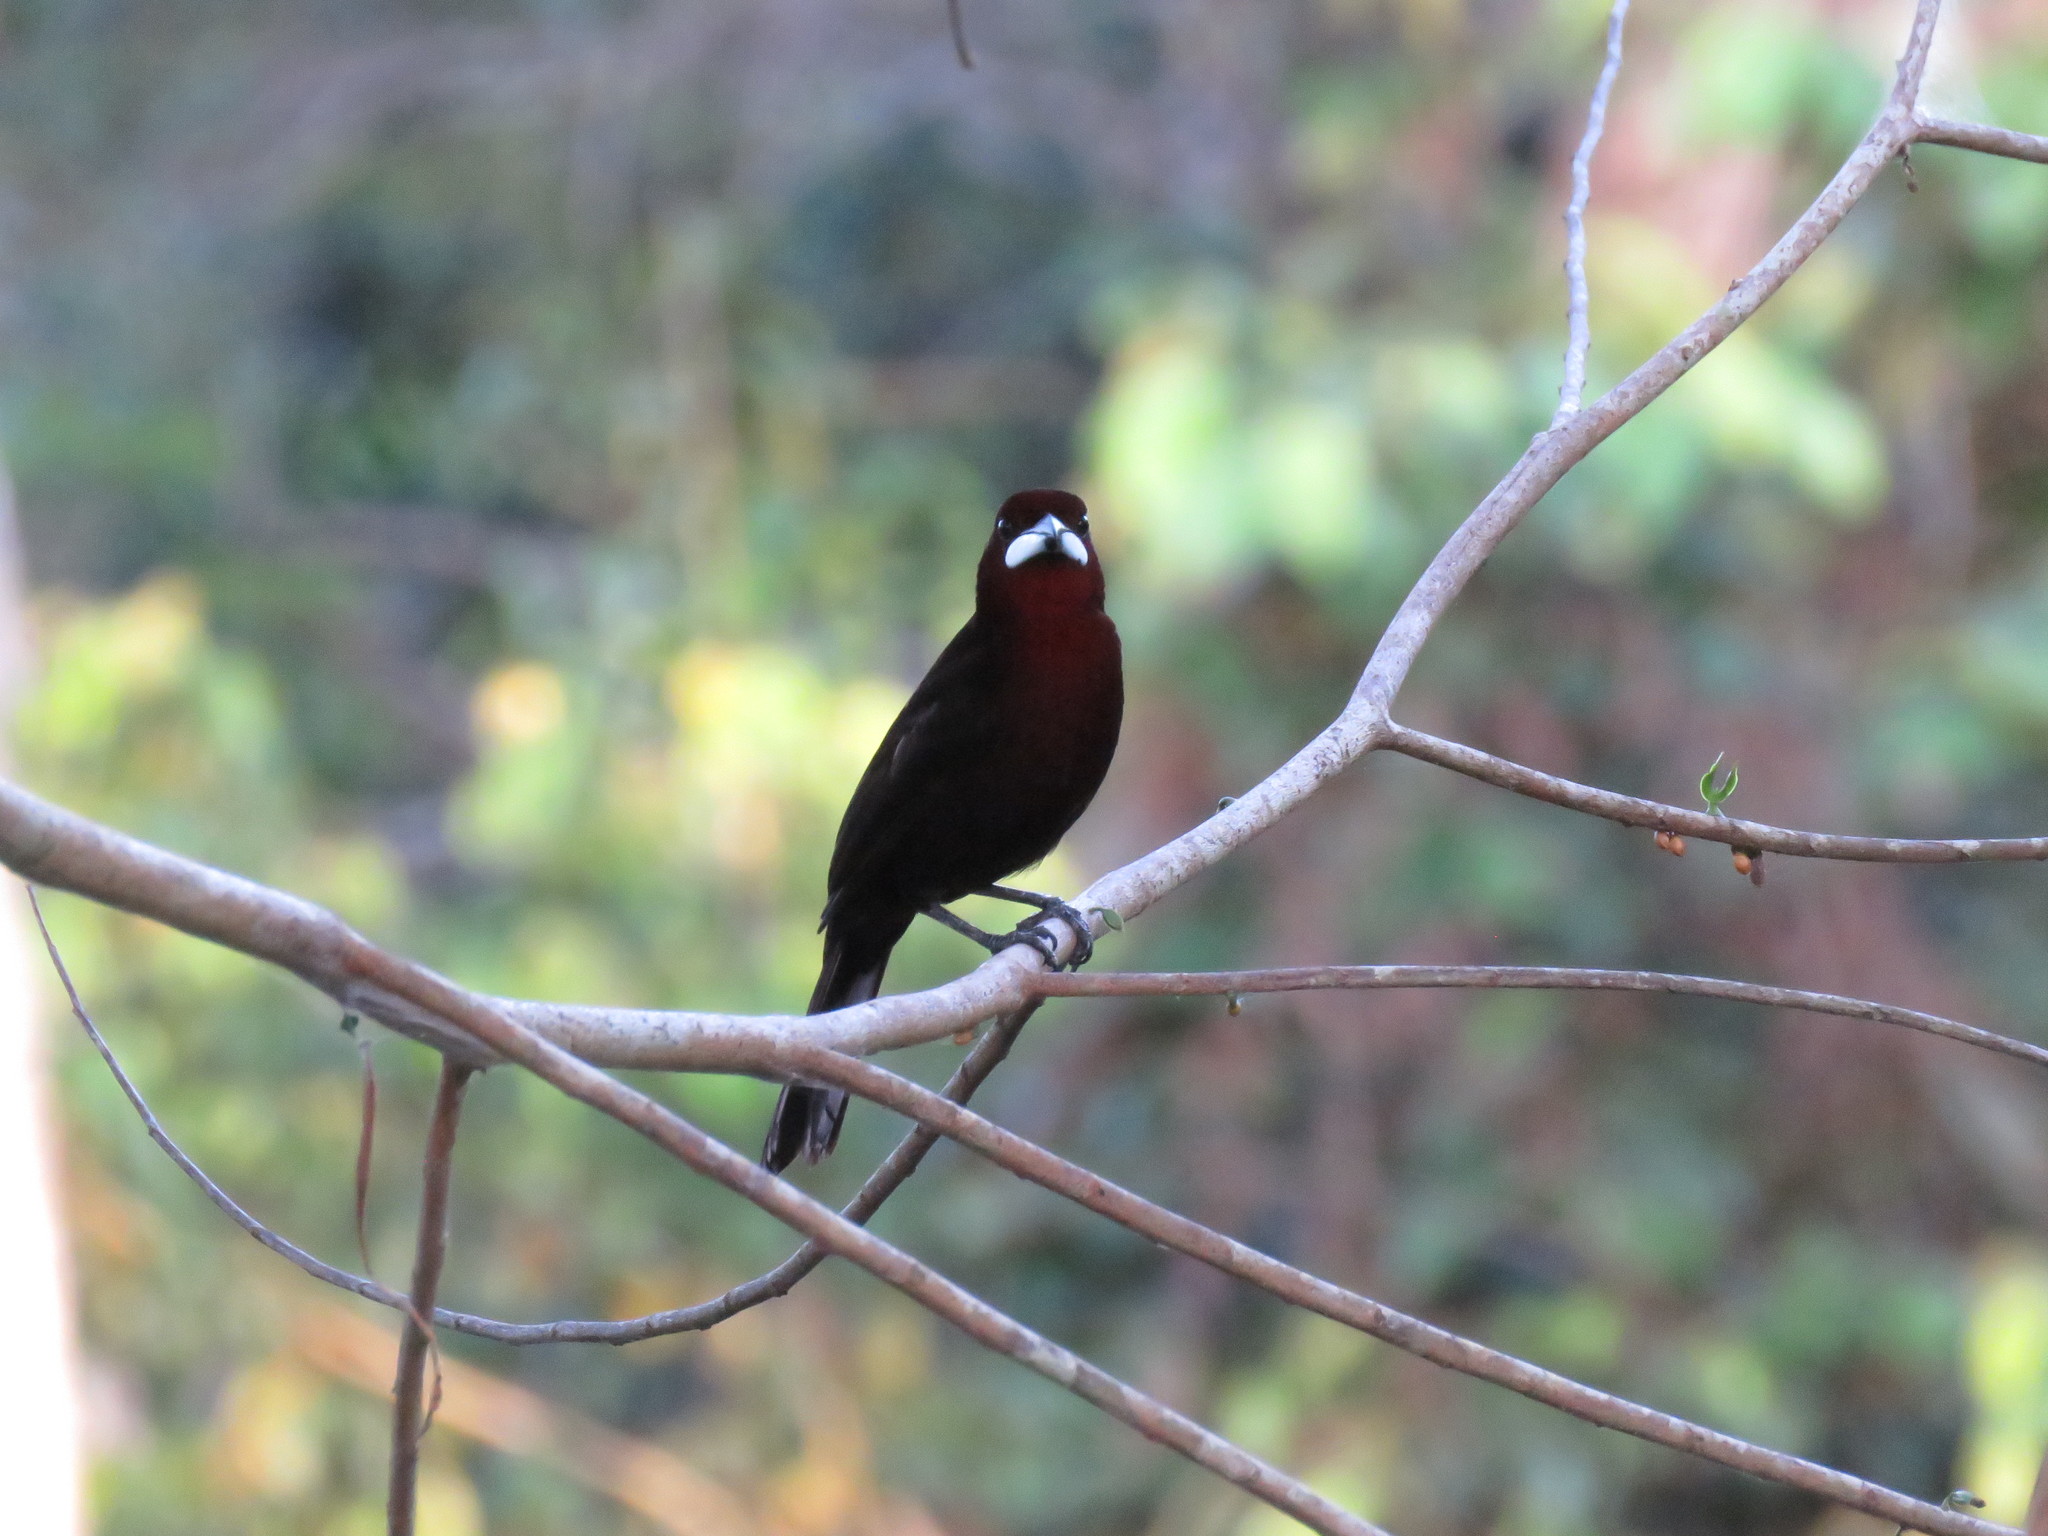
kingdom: Animalia
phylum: Chordata
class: Aves
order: Passeriformes
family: Thraupidae
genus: Ramphocelus
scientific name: Ramphocelus carbo
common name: Silver-beaked tanager
